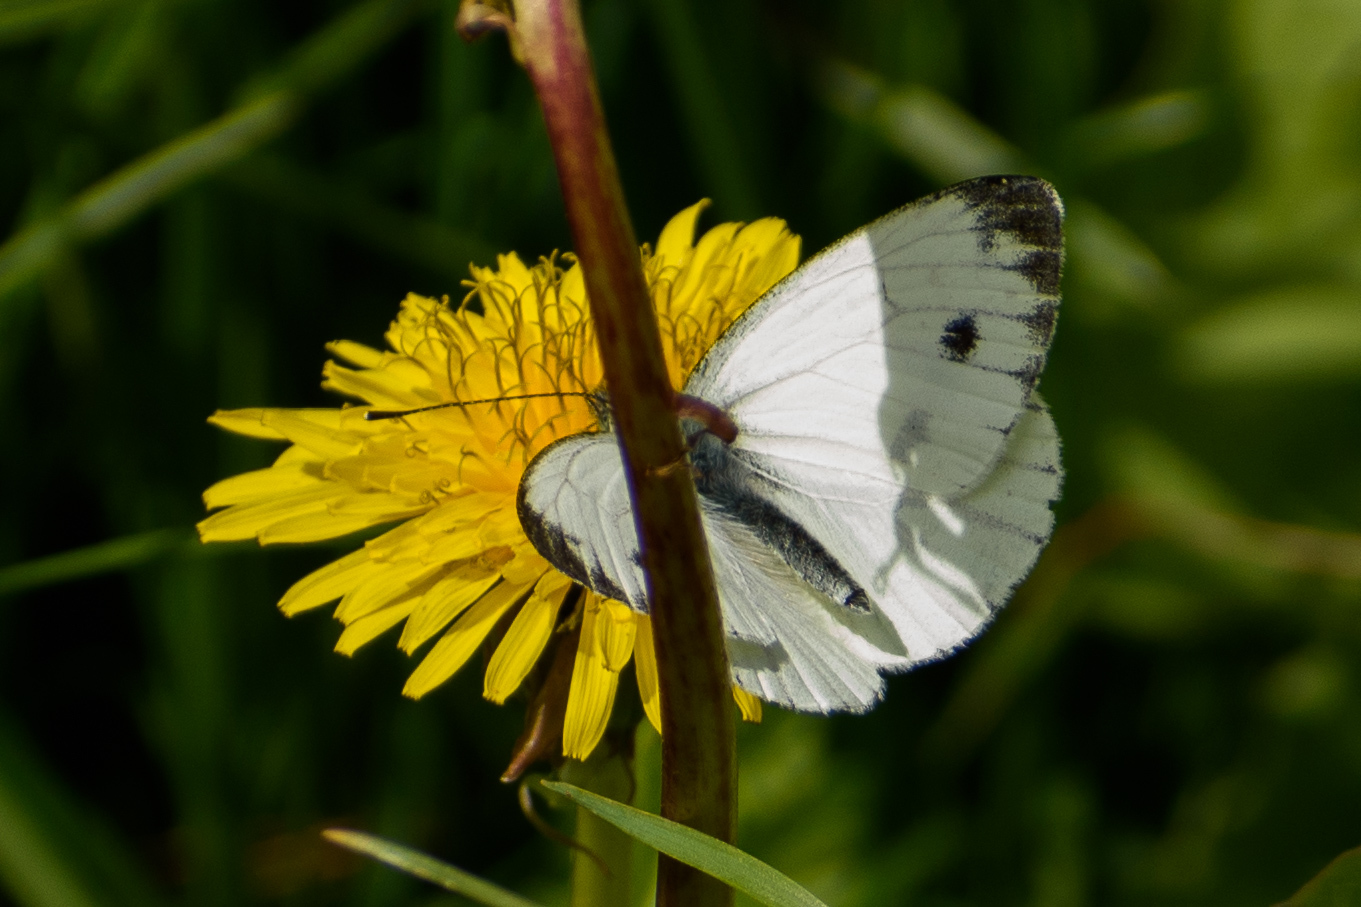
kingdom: Animalia
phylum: Arthropoda
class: Insecta
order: Lepidoptera
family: Pieridae
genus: Pieris
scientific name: Pieris napi
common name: Green-veined white
